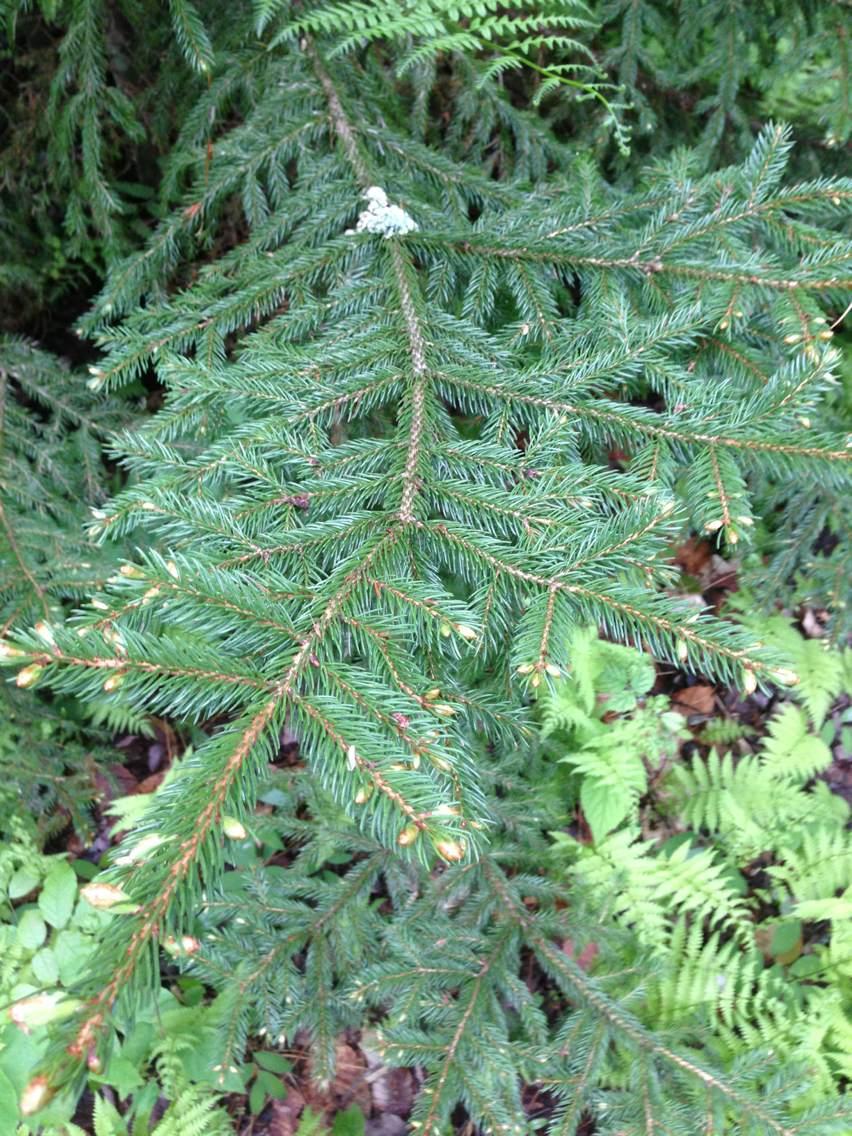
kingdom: Plantae
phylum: Tracheophyta
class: Pinopsida
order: Pinales
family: Pinaceae
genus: Picea
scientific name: Picea rubens
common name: Red spruce
